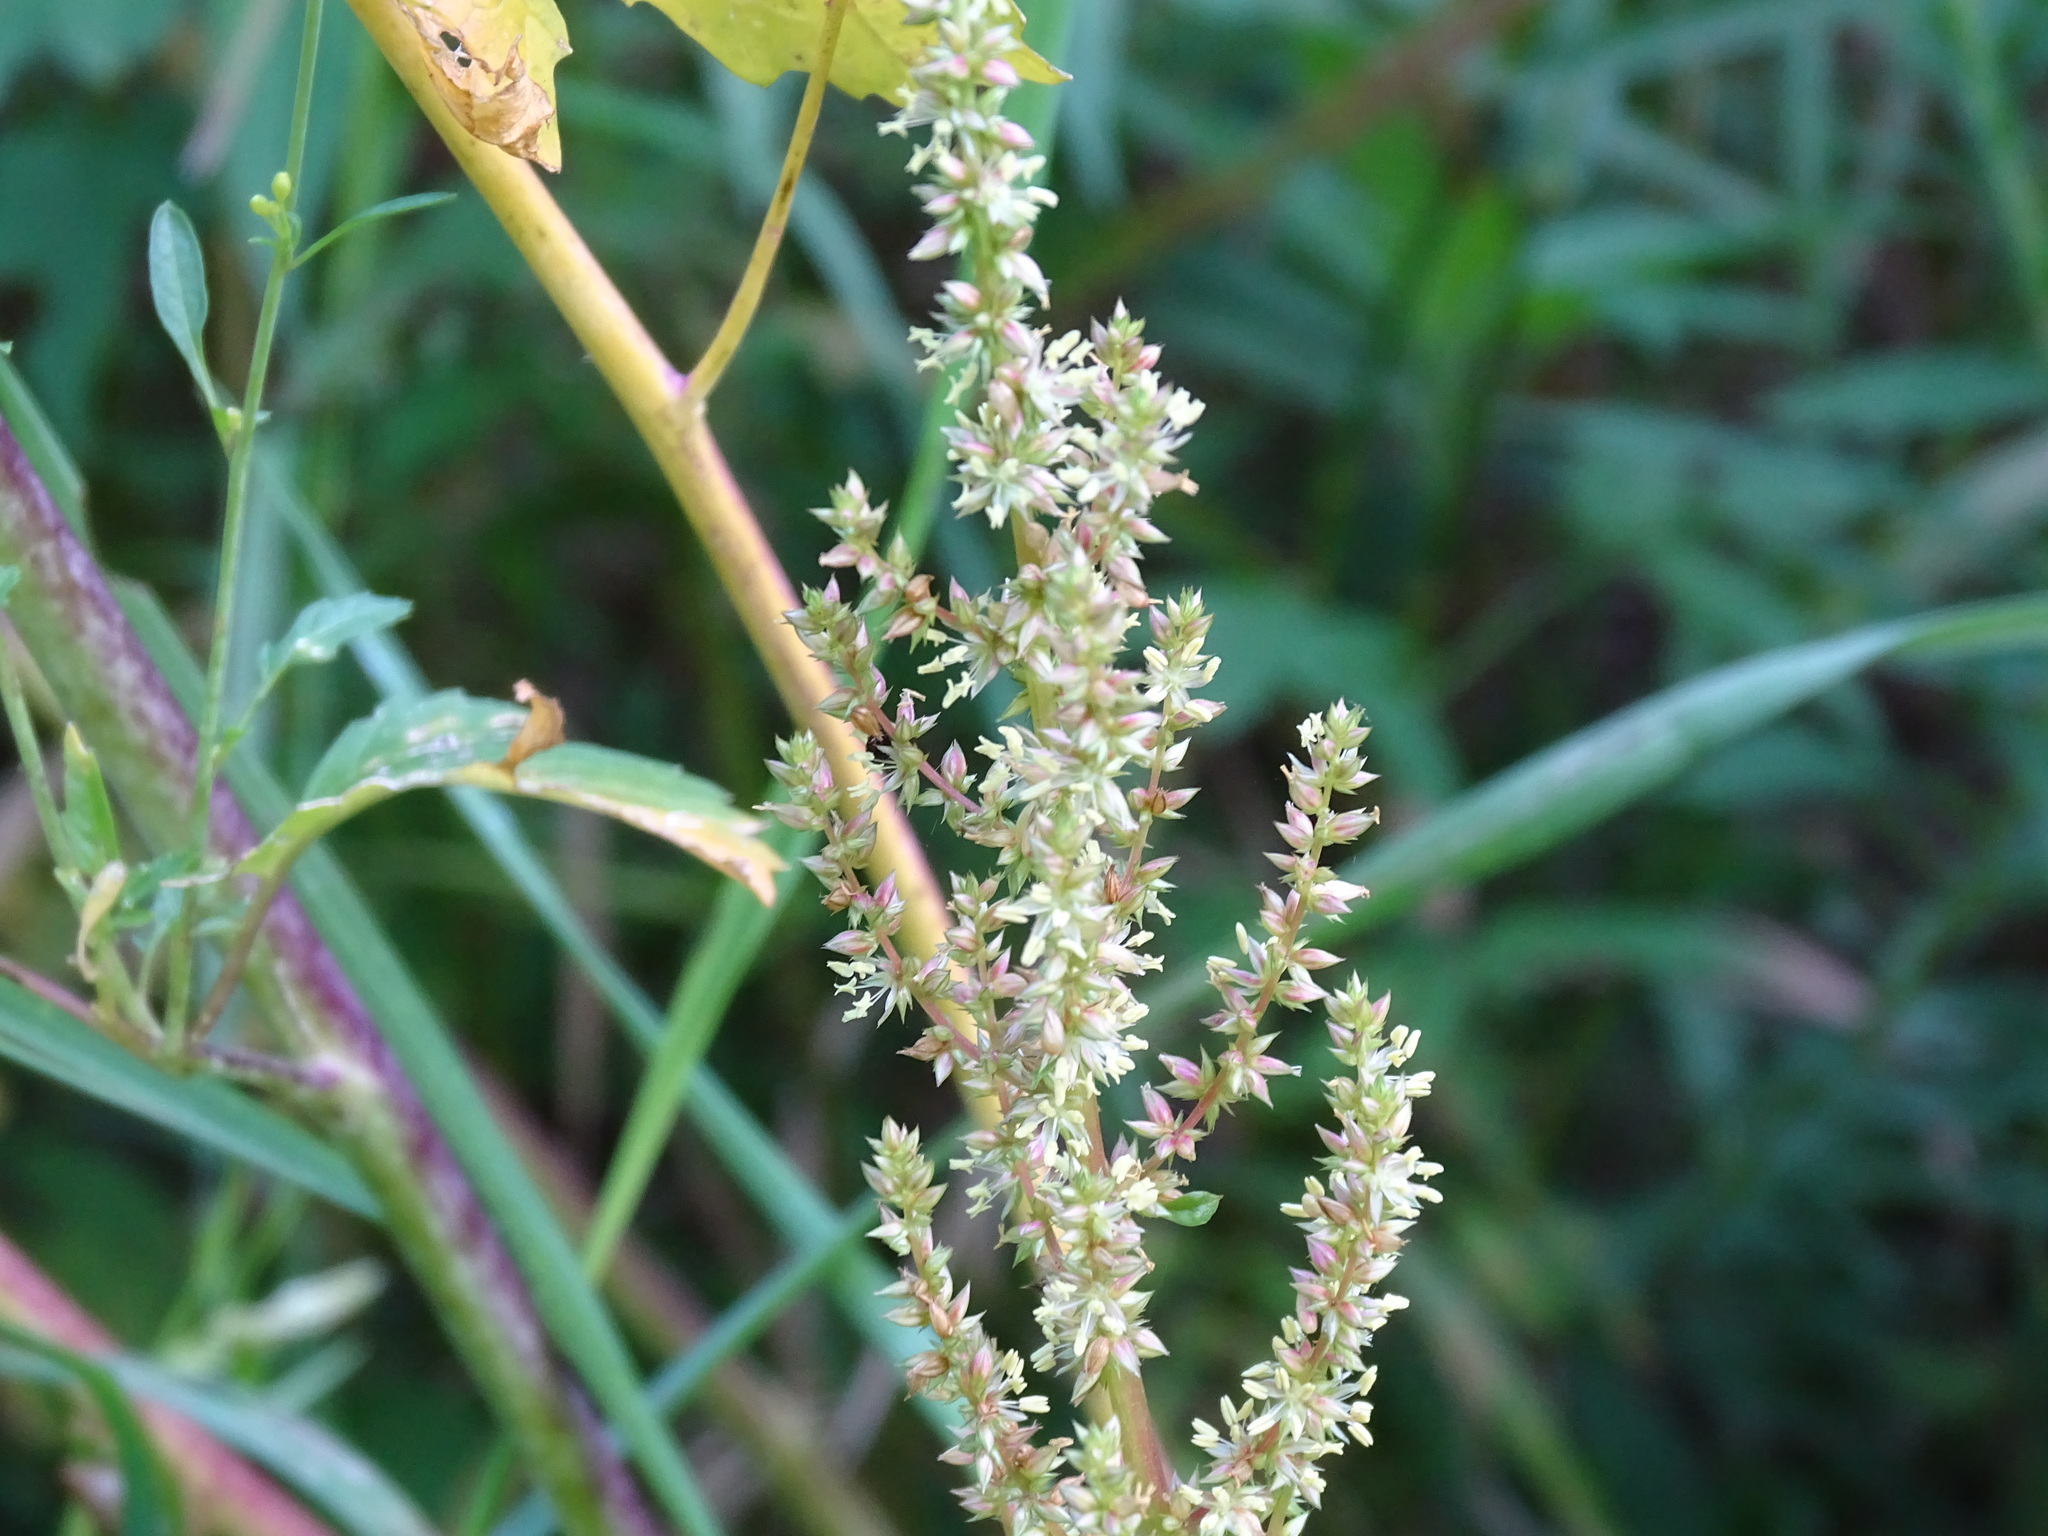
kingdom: Plantae
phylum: Tracheophyta
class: Magnoliopsida
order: Caryophyllales
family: Amaranthaceae
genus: Amaranthus
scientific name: Amaranthus tuberculatus
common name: Rough-fruit amaranth
